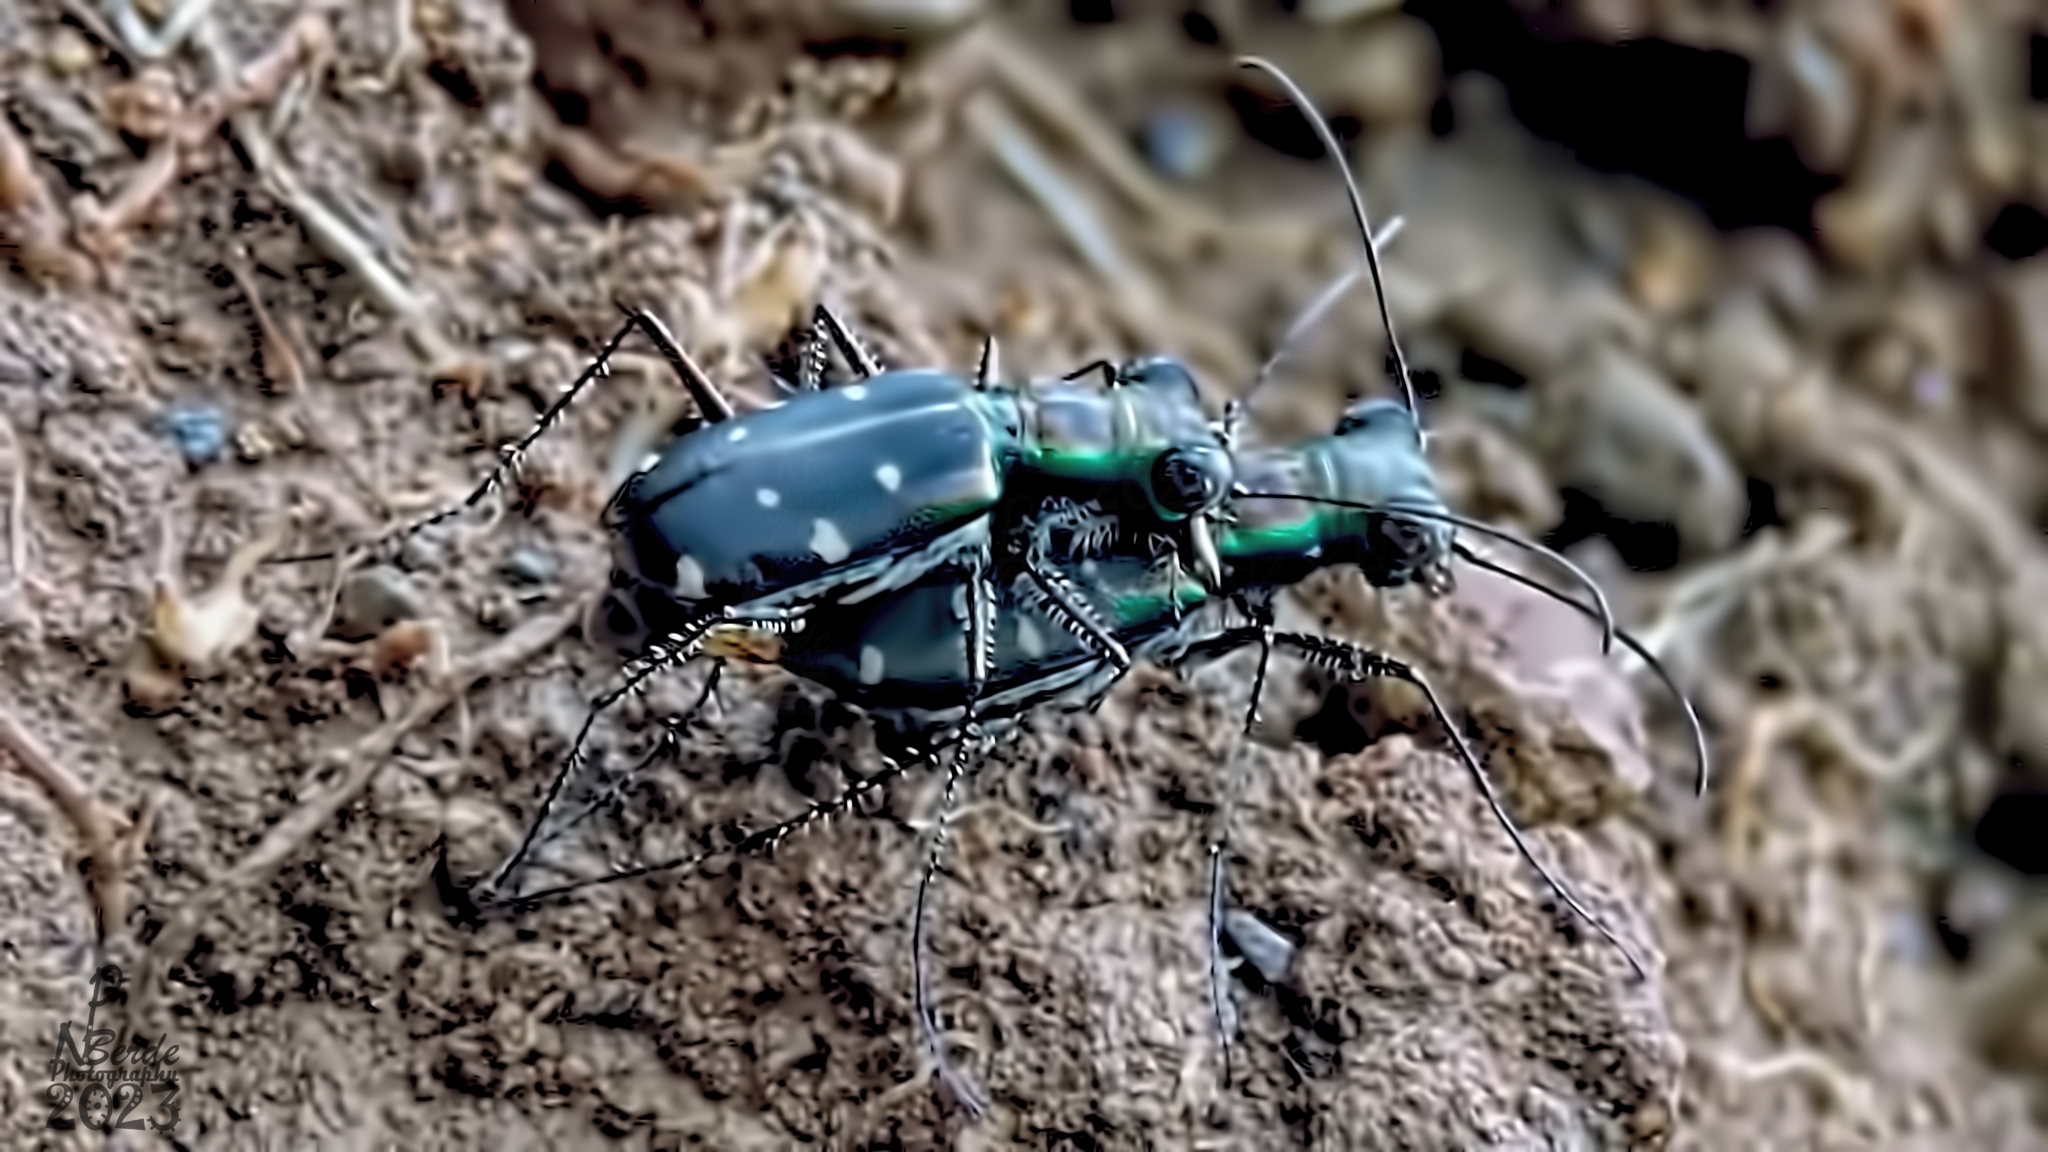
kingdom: Animalia
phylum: Arthropoda
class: Insecta
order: Coleoptera
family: Carabidae
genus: Cylindera
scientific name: Cylindera collicia
